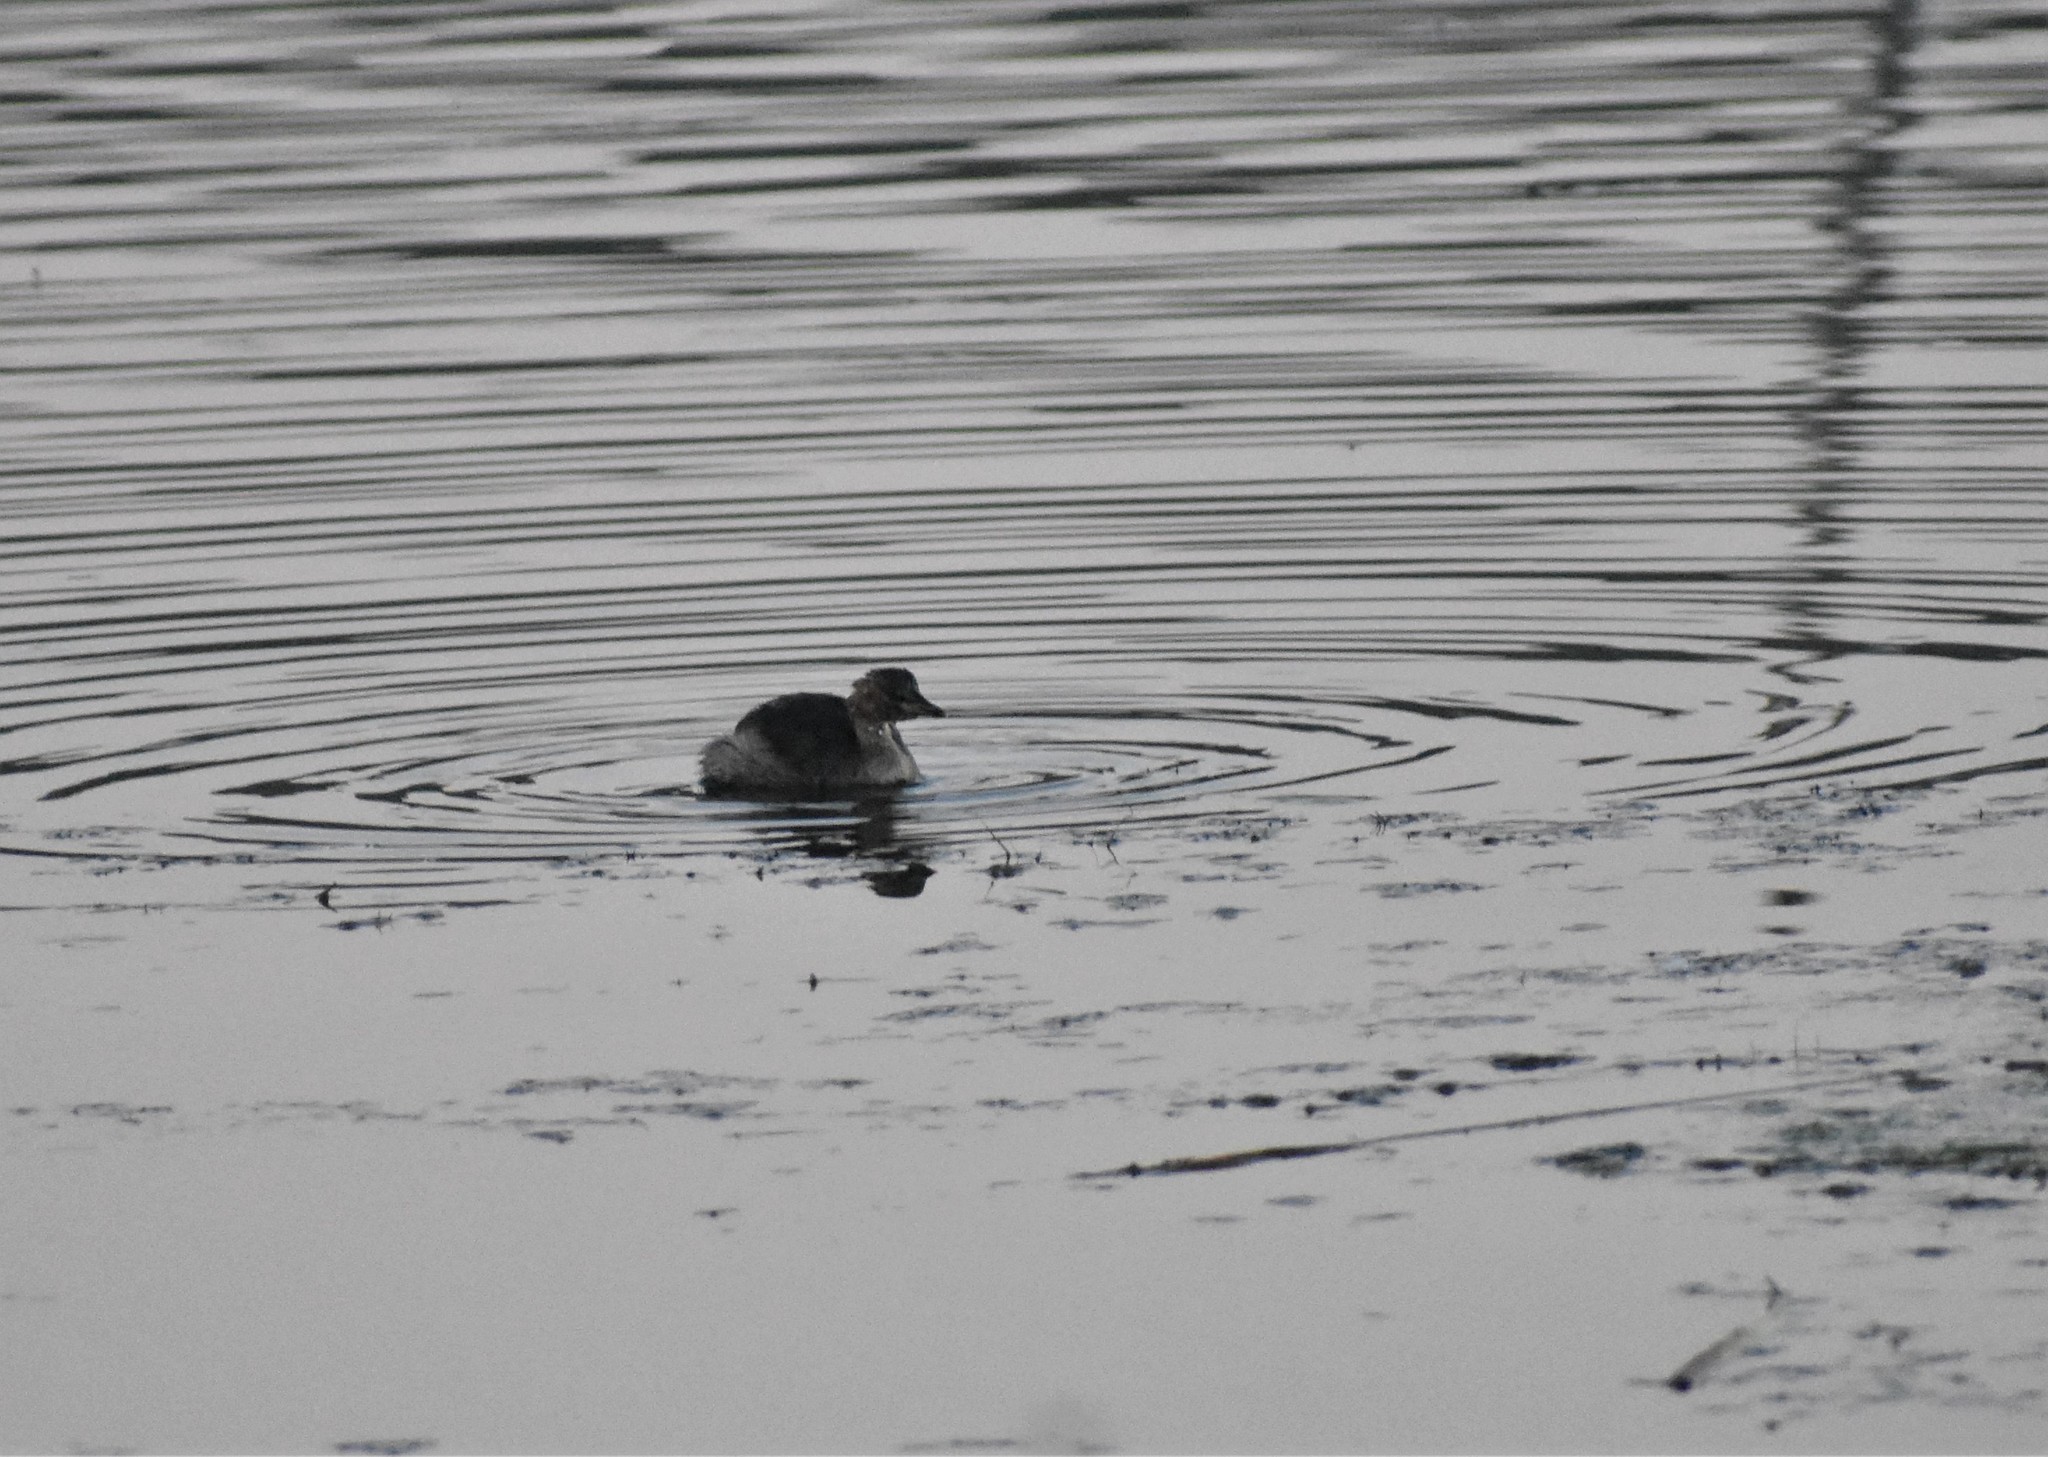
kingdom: Animalia
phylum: Chordata
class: Aves
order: Podicipediformes
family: Podicipedidae
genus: Tachybaptus
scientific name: Tachybaptus ruficollis
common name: Little grebe
